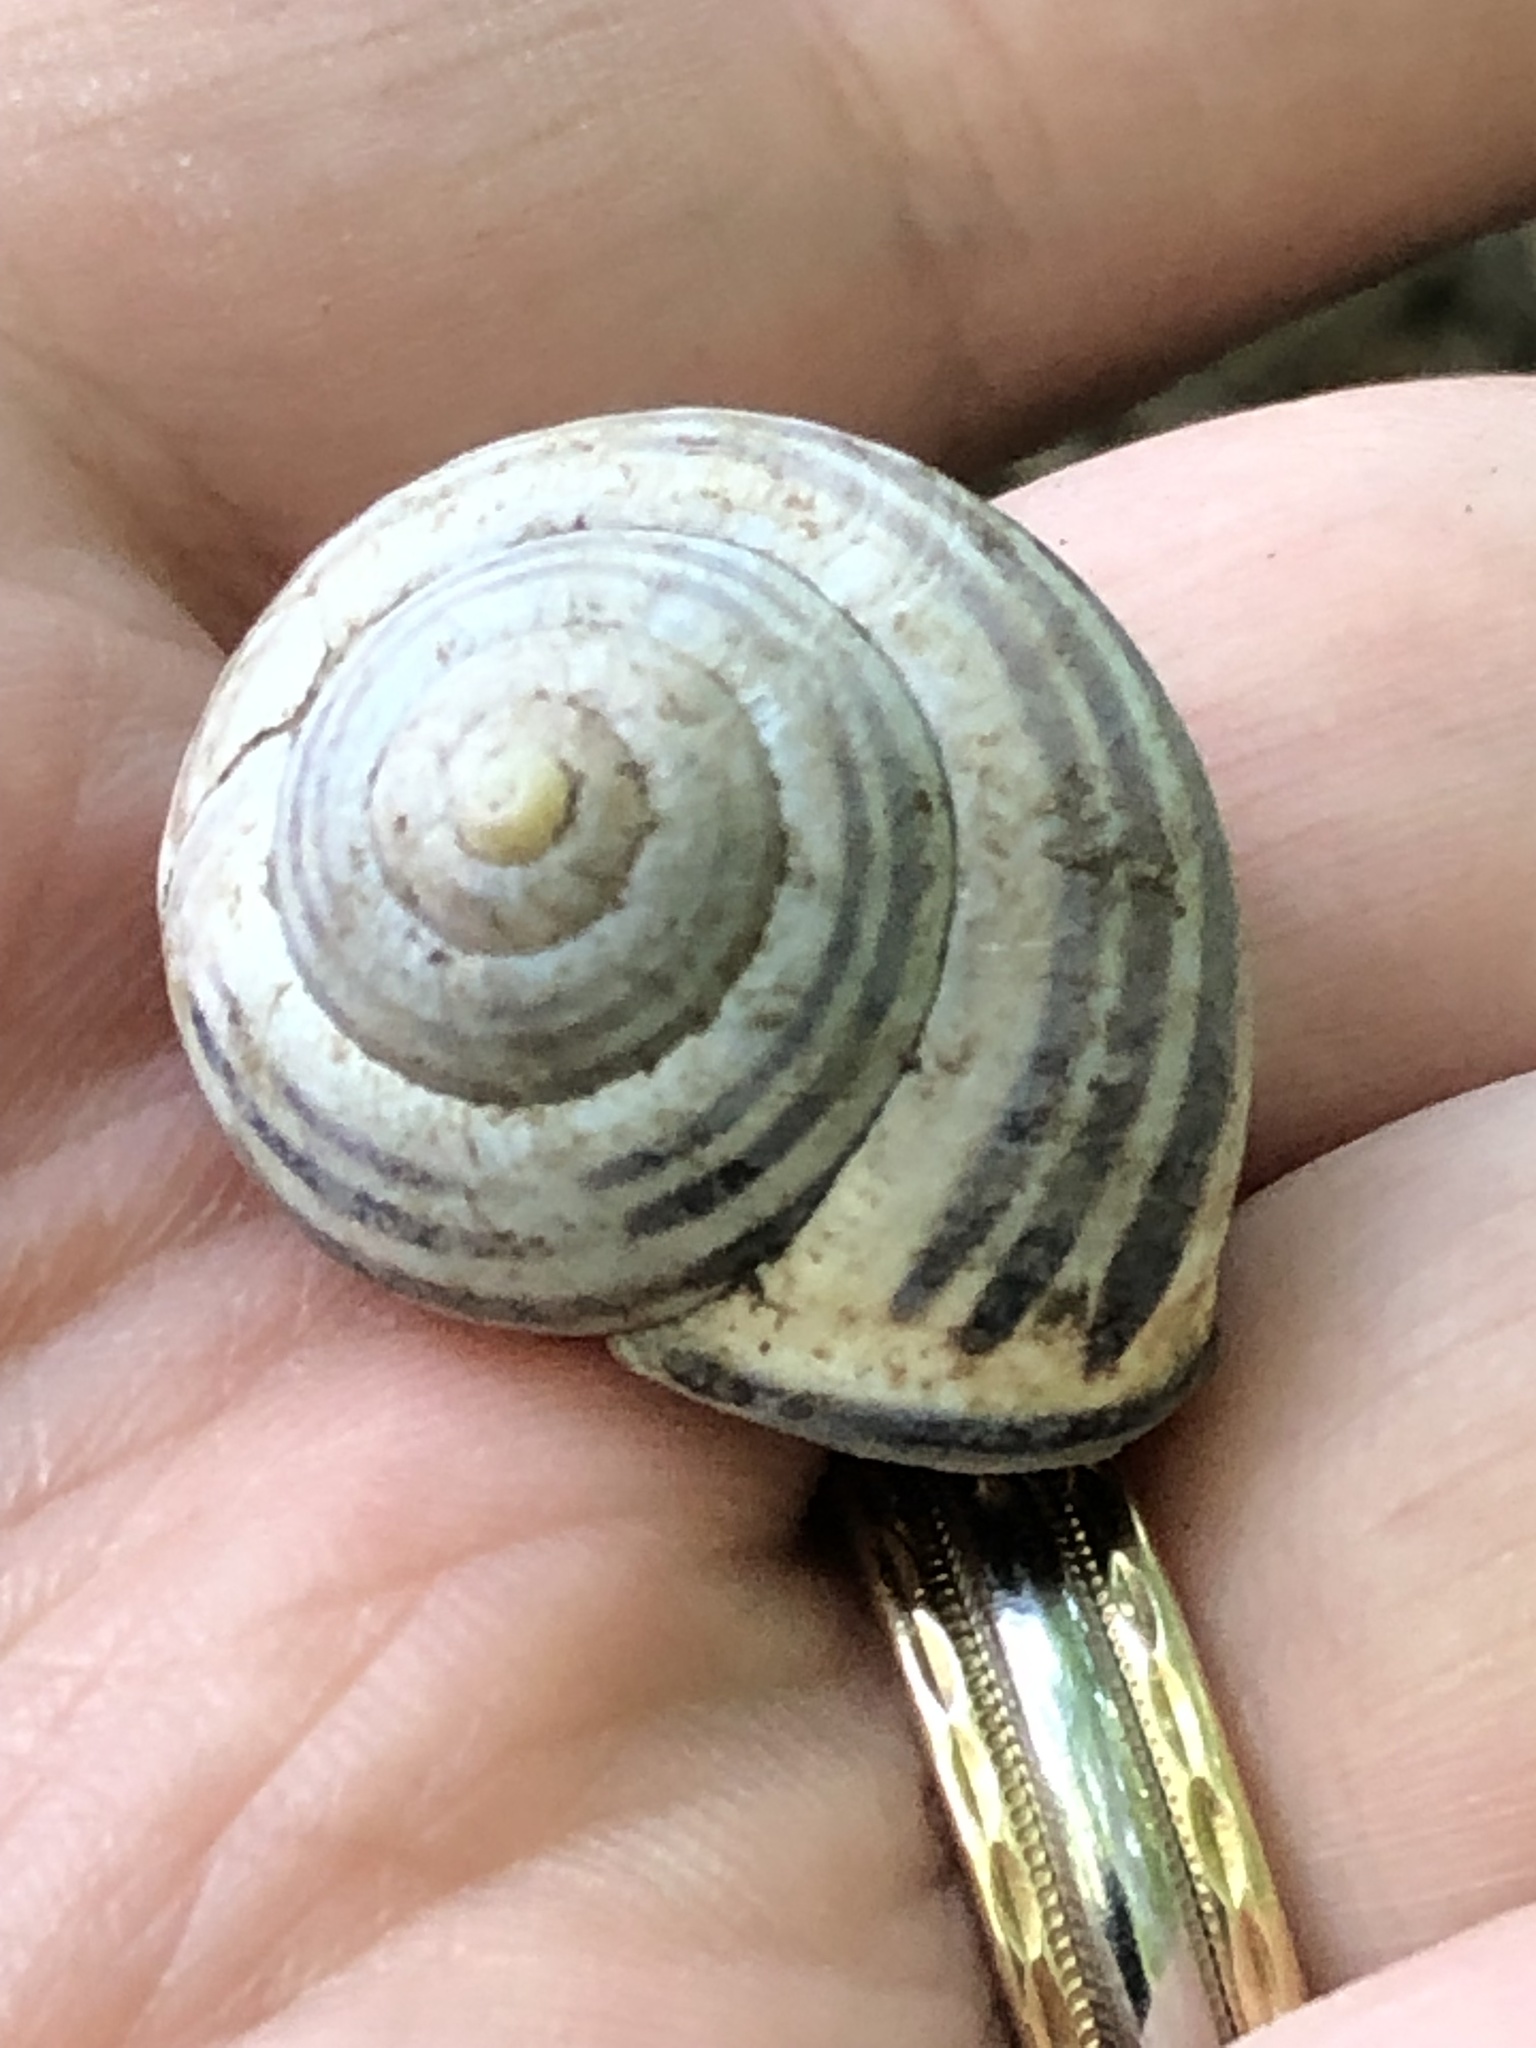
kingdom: Animalia
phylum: Mollusca
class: Gastropoda
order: Stylommatophora
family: Helicidae
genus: Cepaea
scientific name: Cepaea nemoralis
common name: Grovesnail
